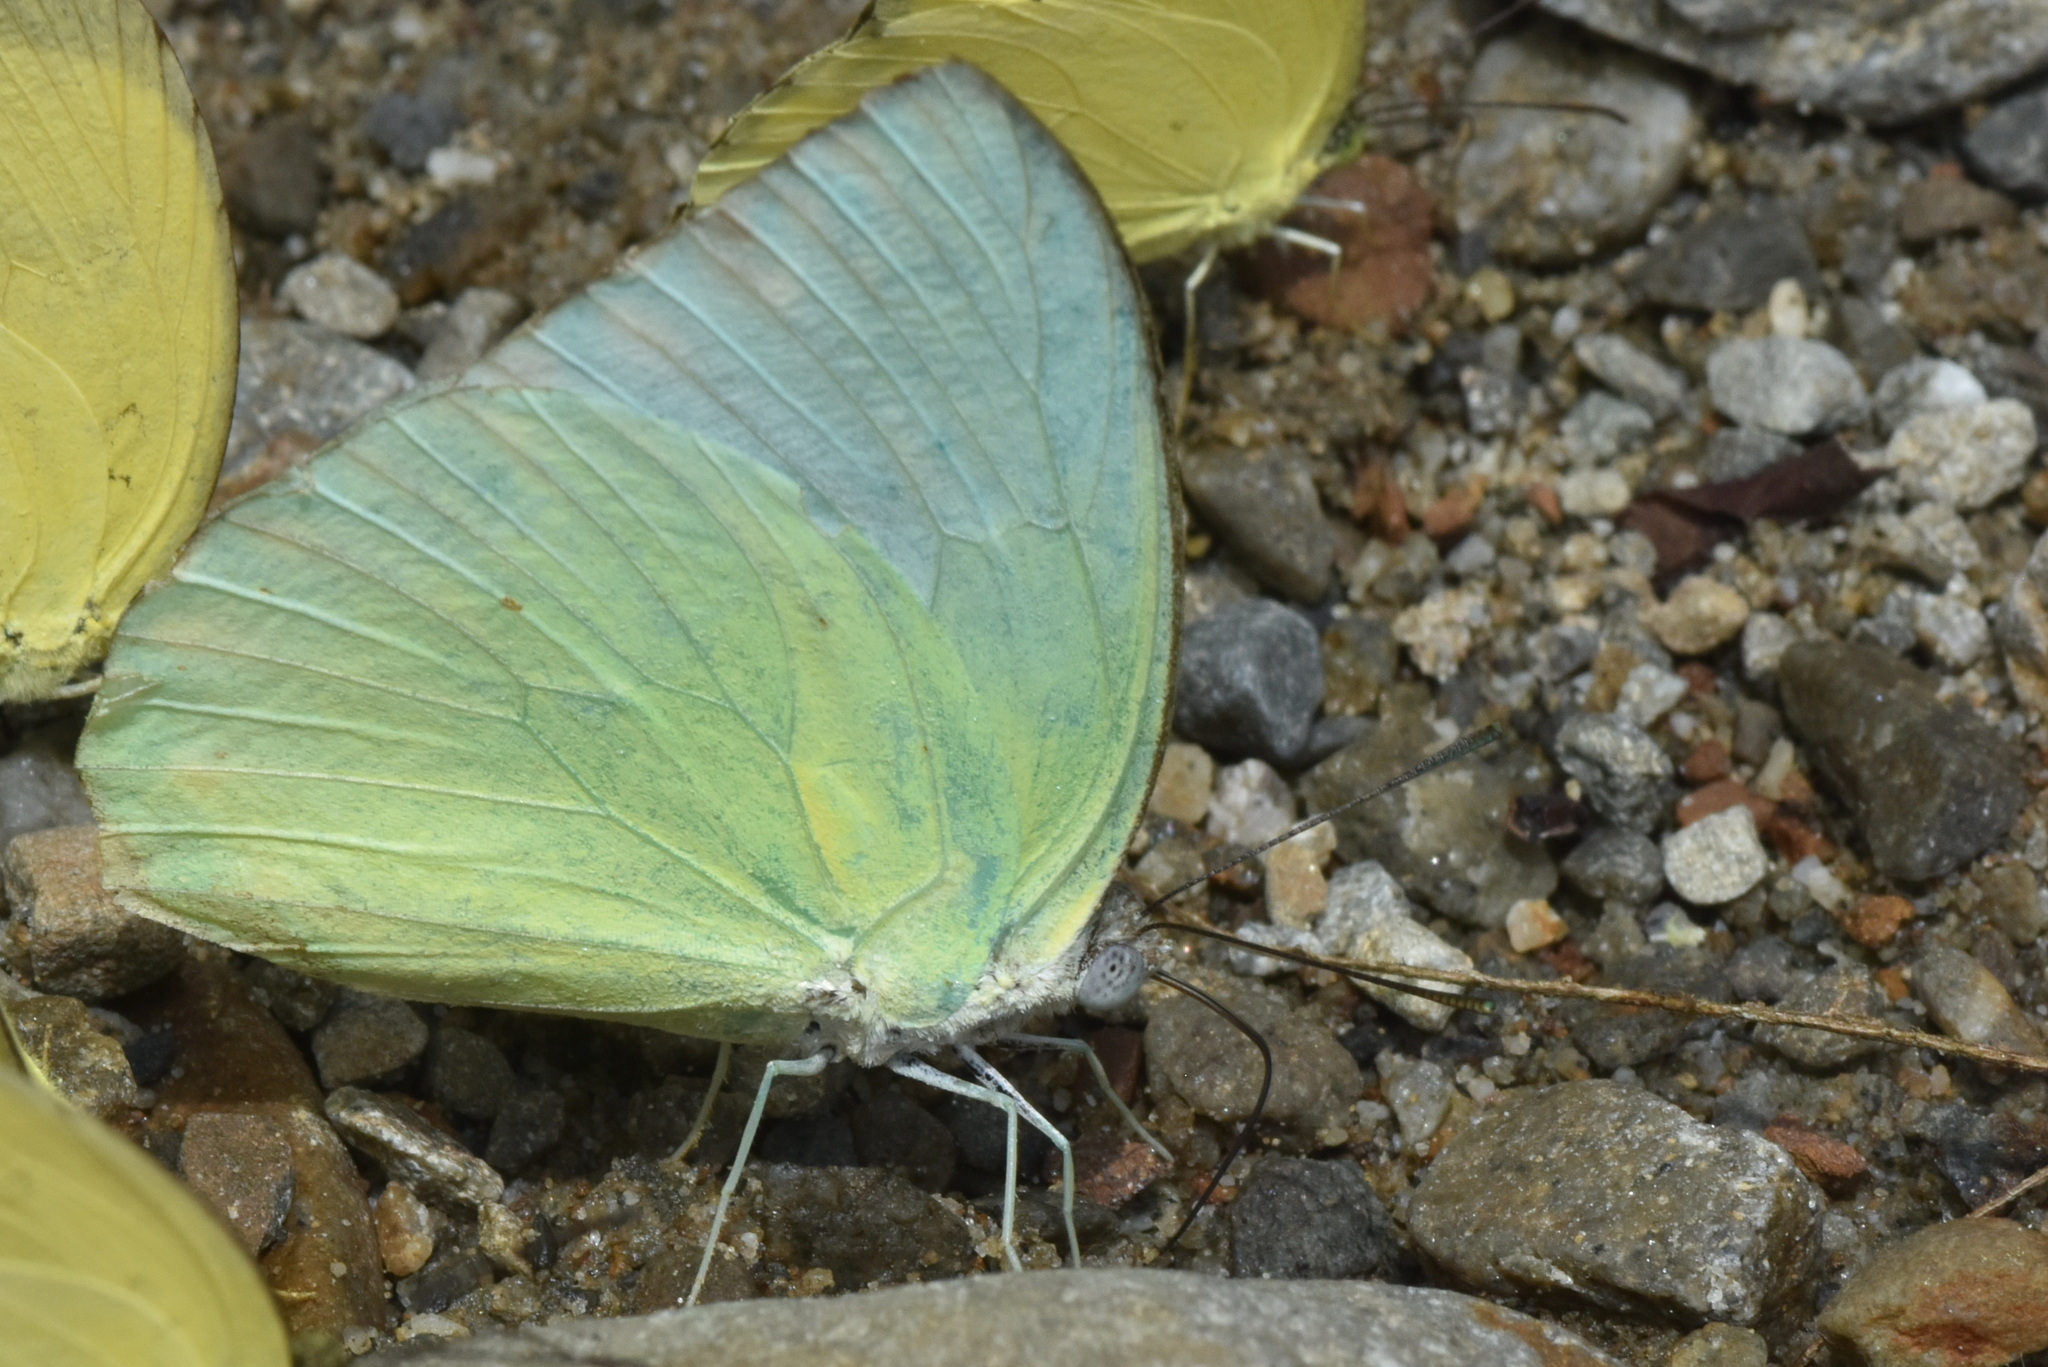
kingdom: Animalia
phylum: Arthropoda
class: Insecta
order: Lepidoptera
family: Pieridae
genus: Catopsilia
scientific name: Catopsilia pomona
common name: Common emigrant
